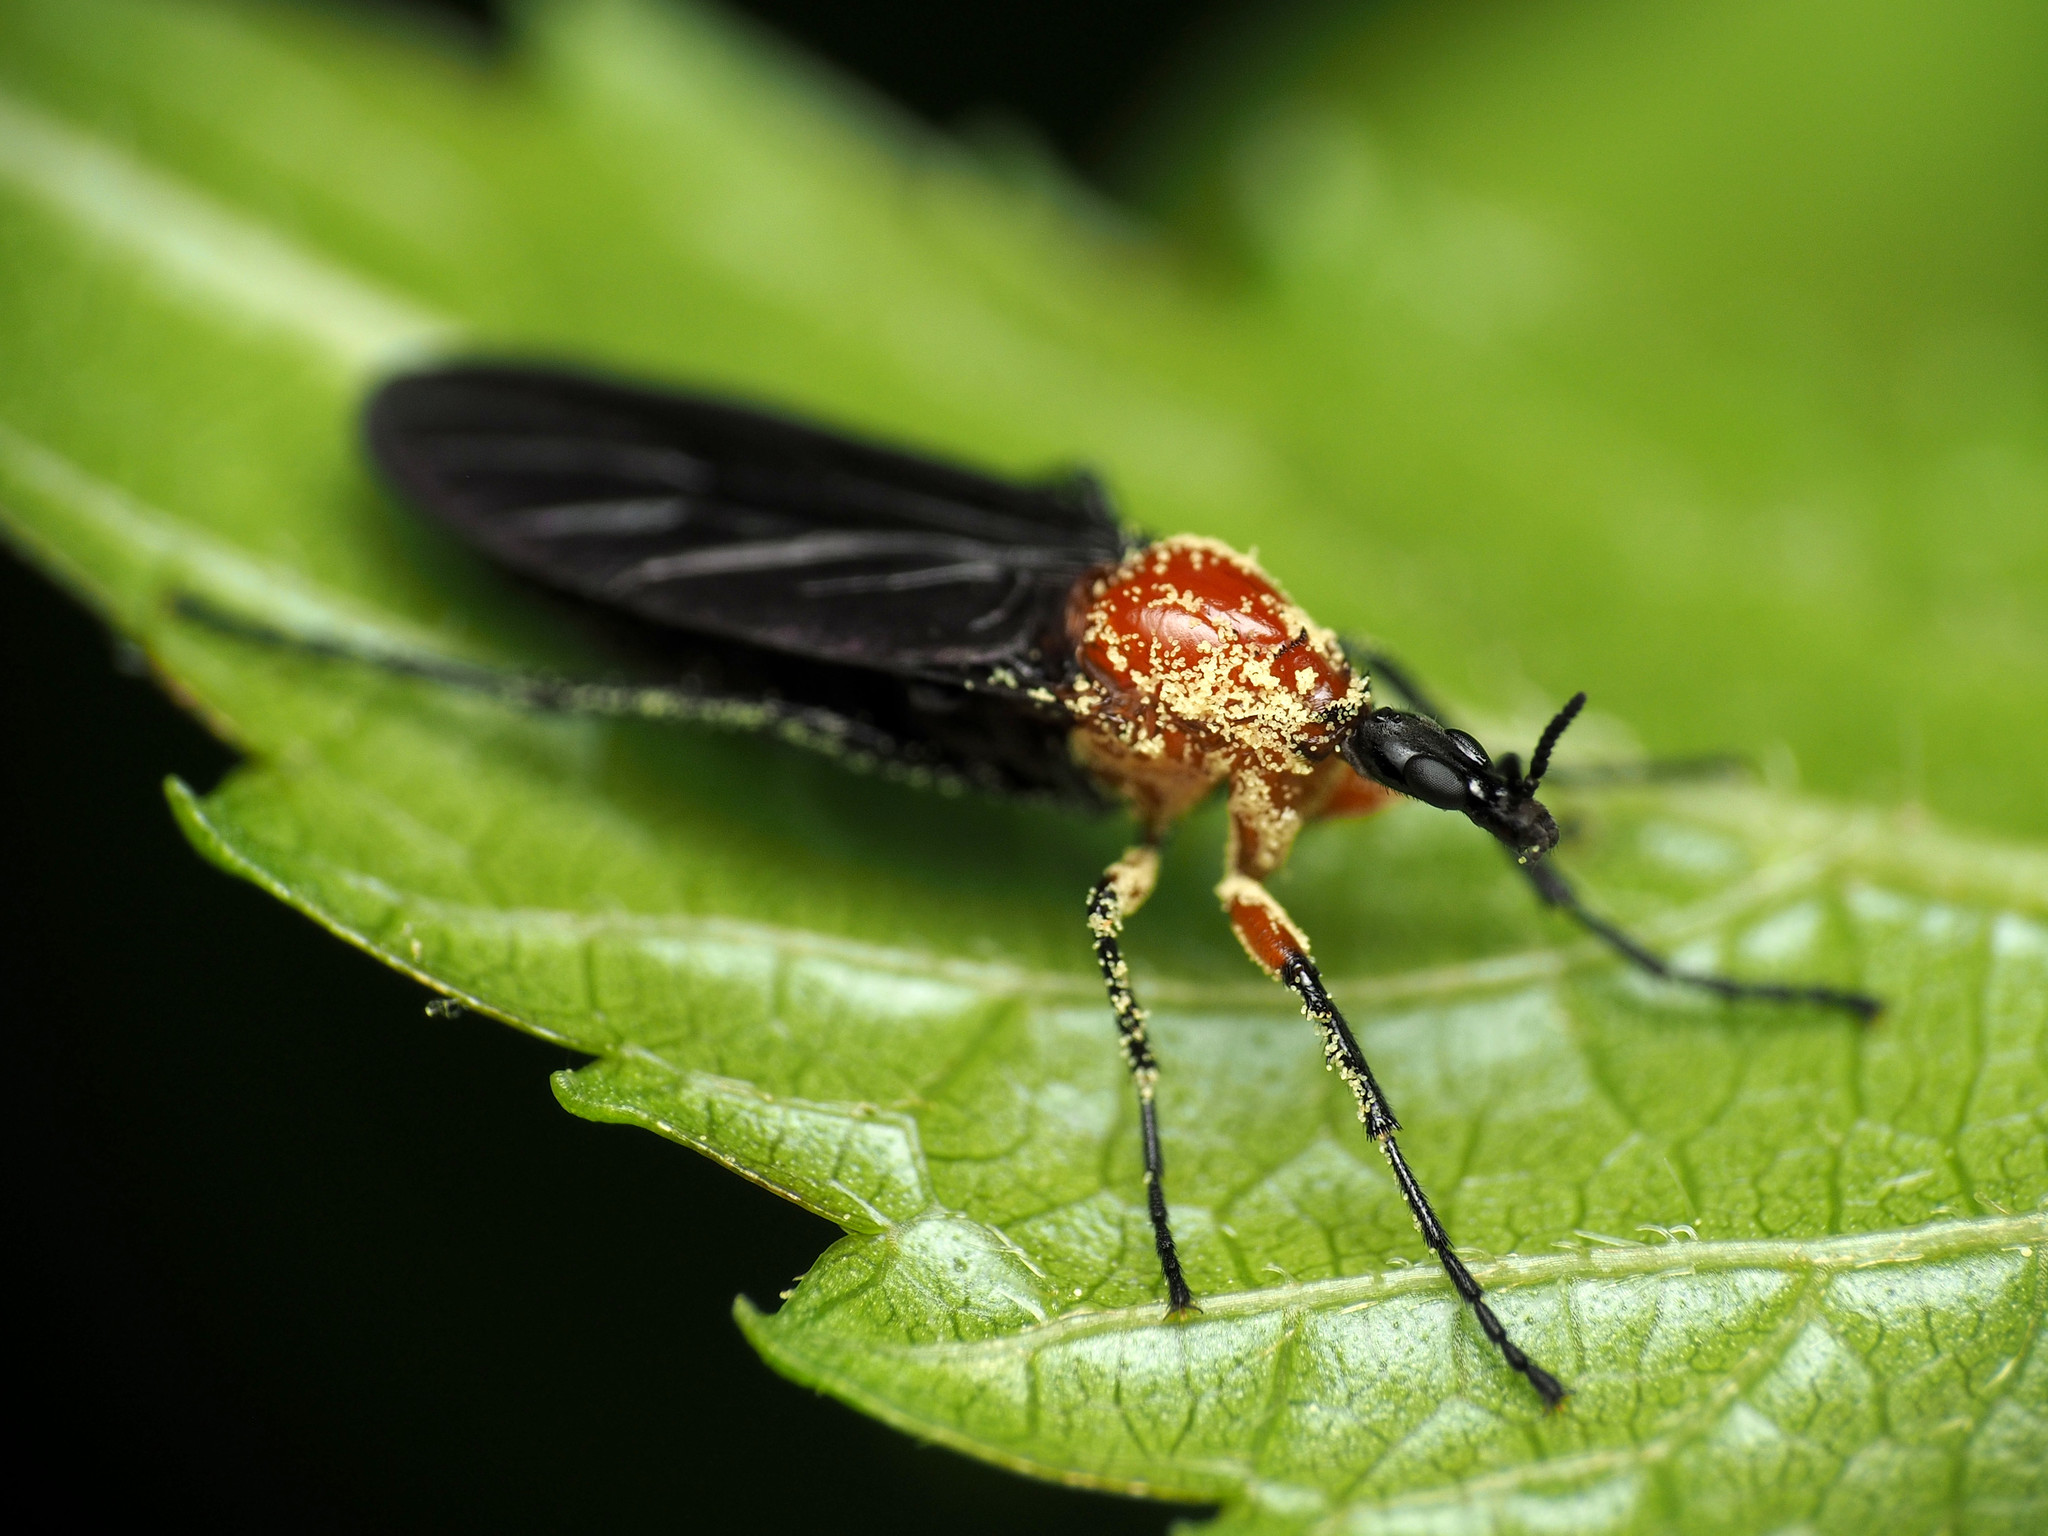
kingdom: Animalia
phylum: Arthropoda
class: Insecta
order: Diptera
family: Bibionidae
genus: Dilophus
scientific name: Dilophus spinipes
